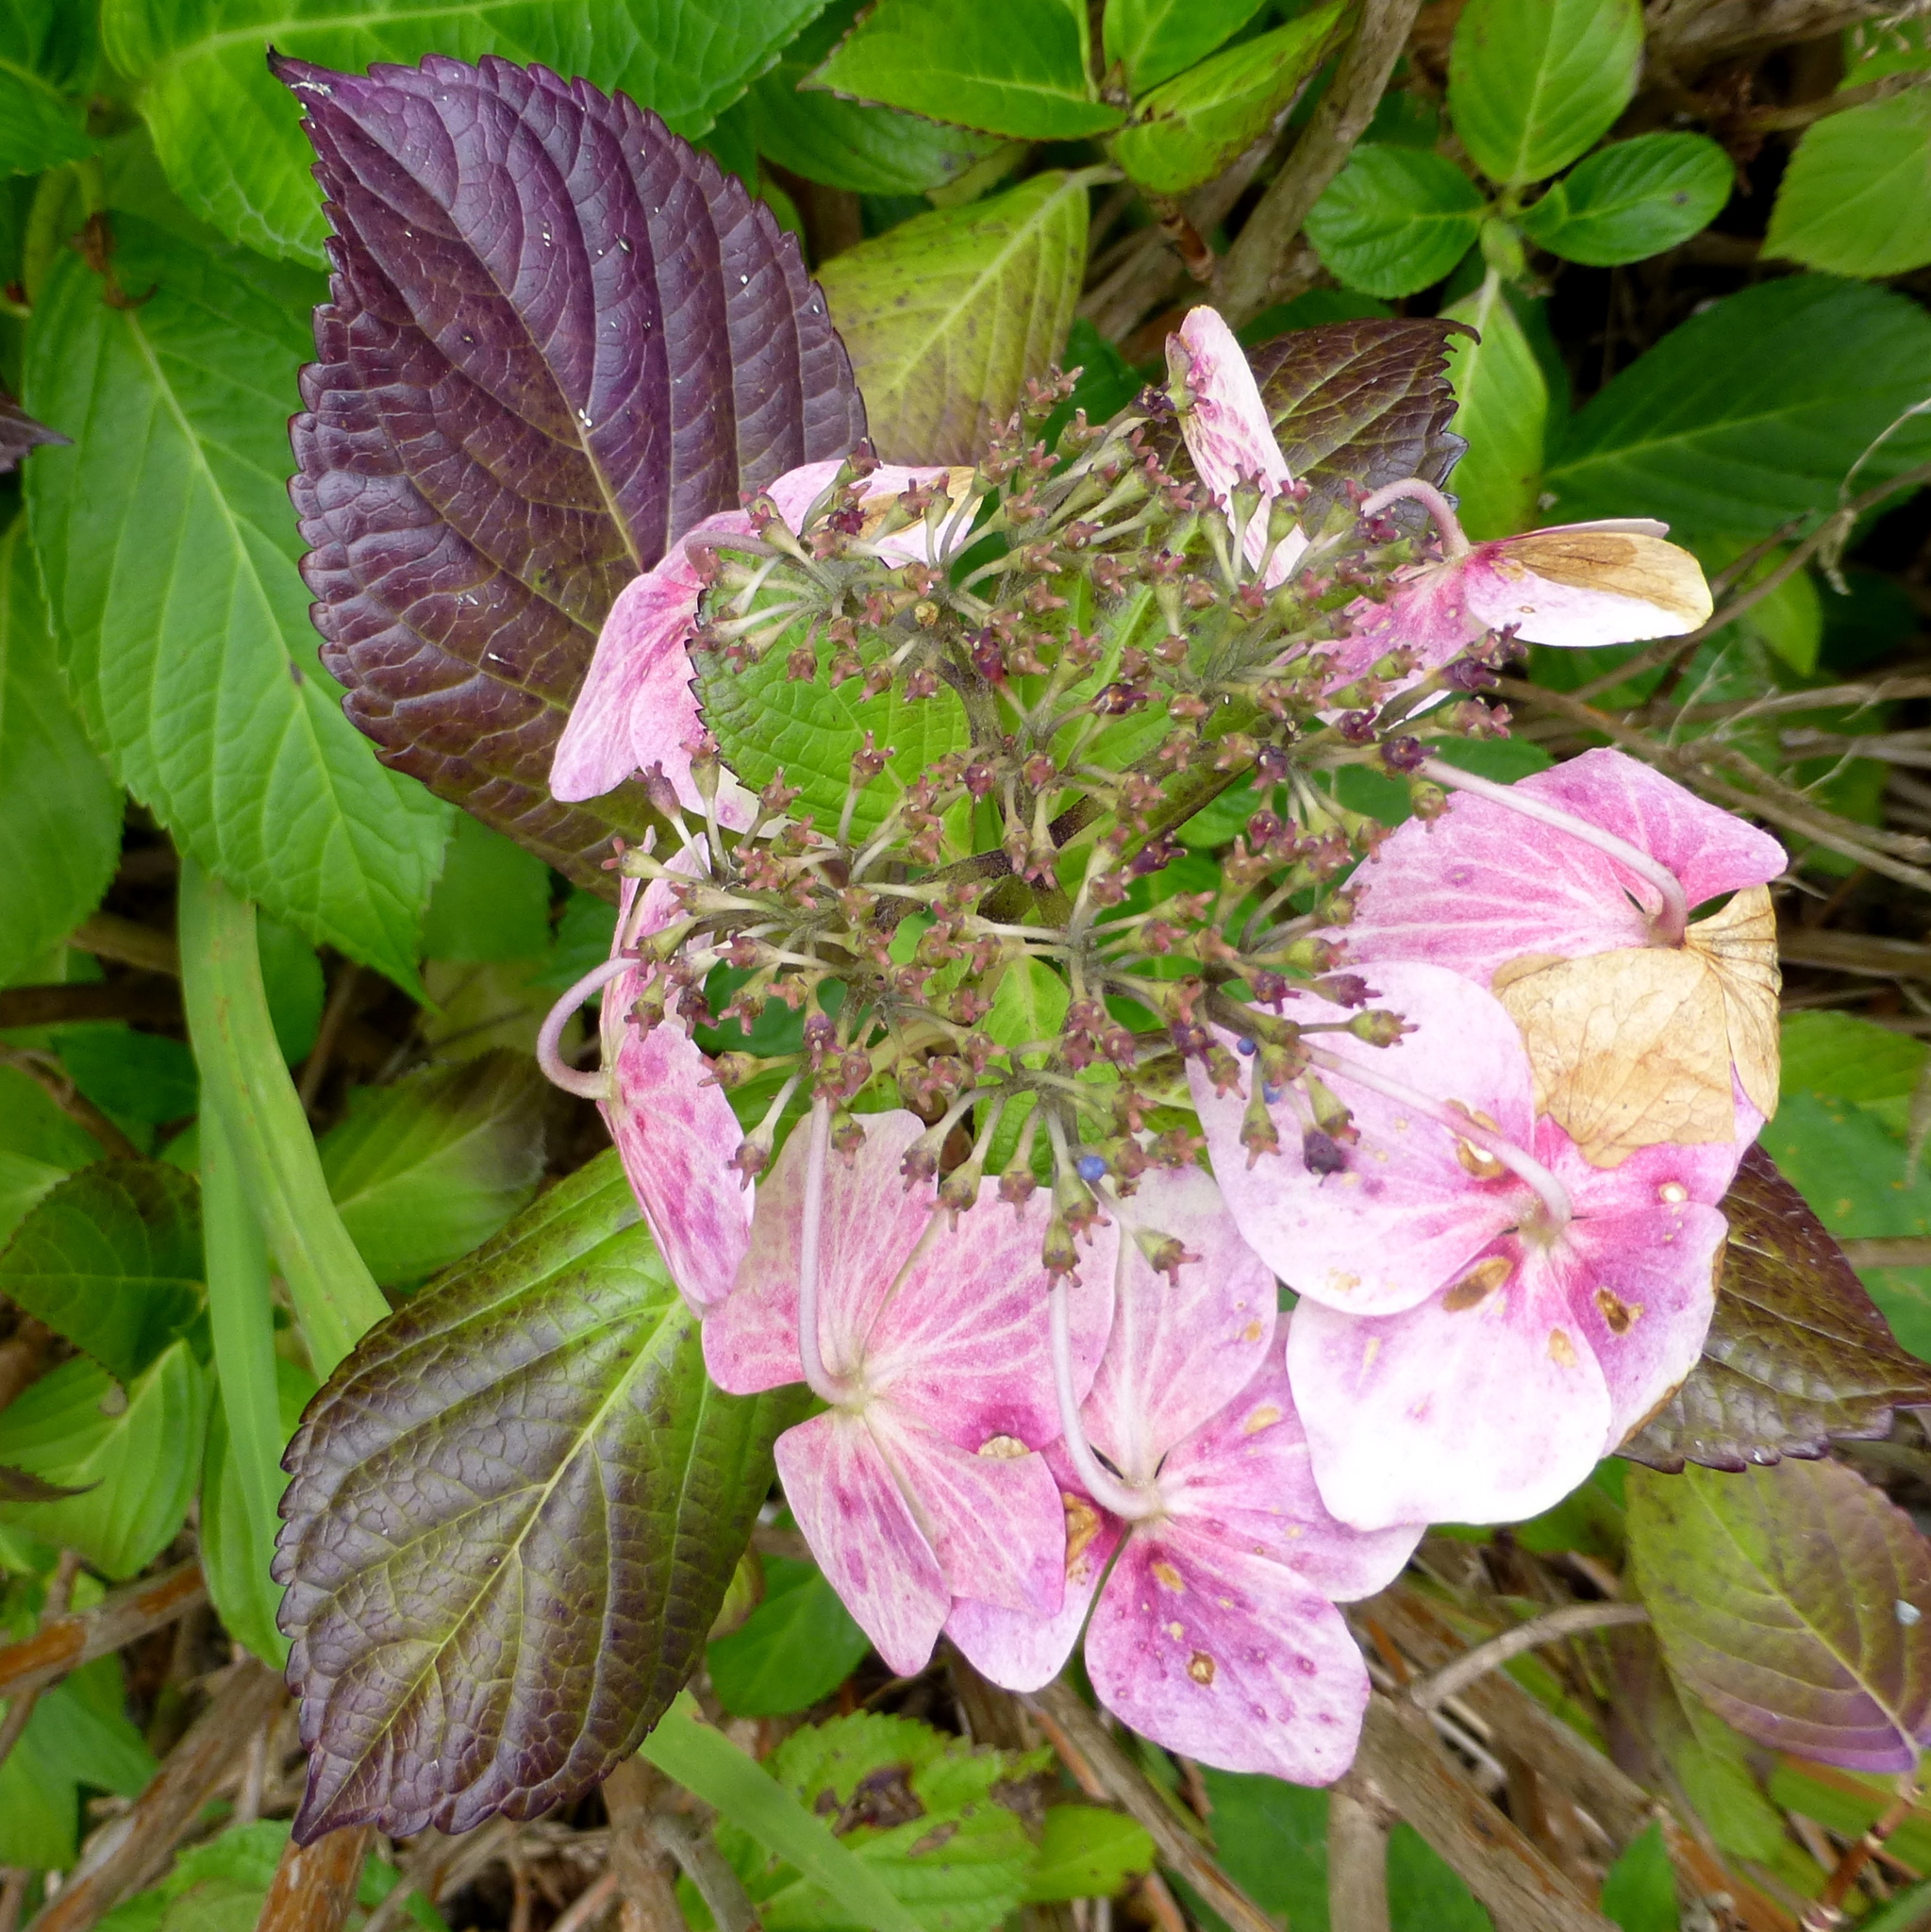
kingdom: Plantae
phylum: Tracheophyta
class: Magnoliopsida
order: Cornales
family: Hydrangeaceae
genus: Hydrangea
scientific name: Hydrangea macrophylla
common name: Hydrangea
